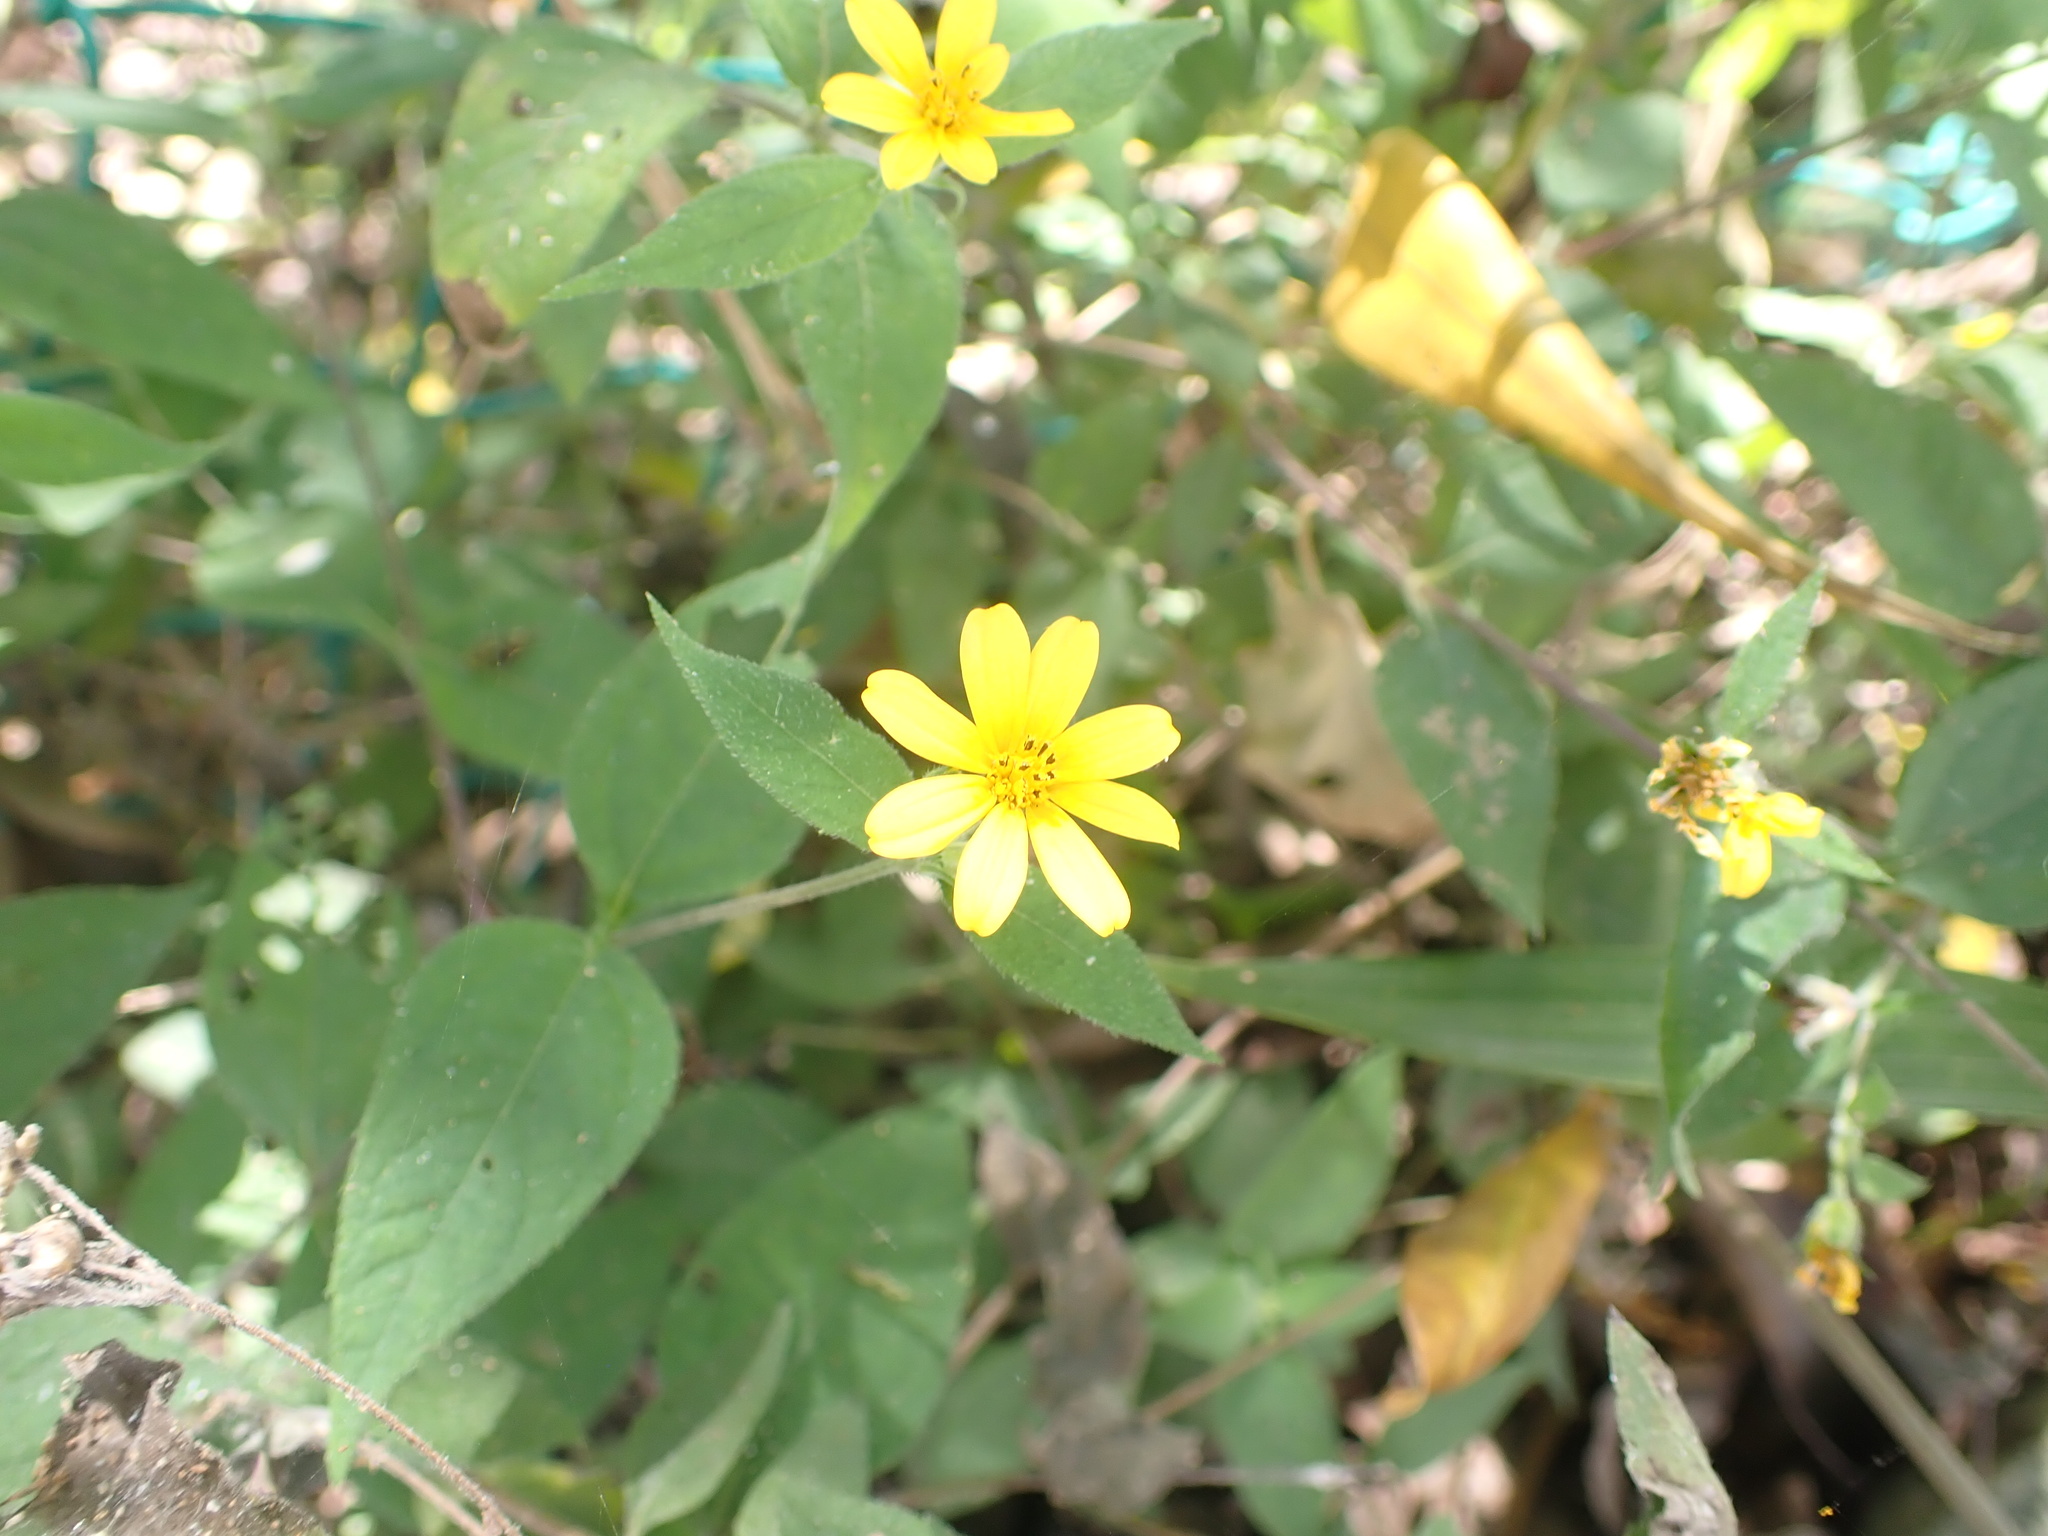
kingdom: Plantae
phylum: Tracheophyta
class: Magnoliopsida
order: Asterales
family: Asteraceae
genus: Wedelia
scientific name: Wedelia acapulcensis
